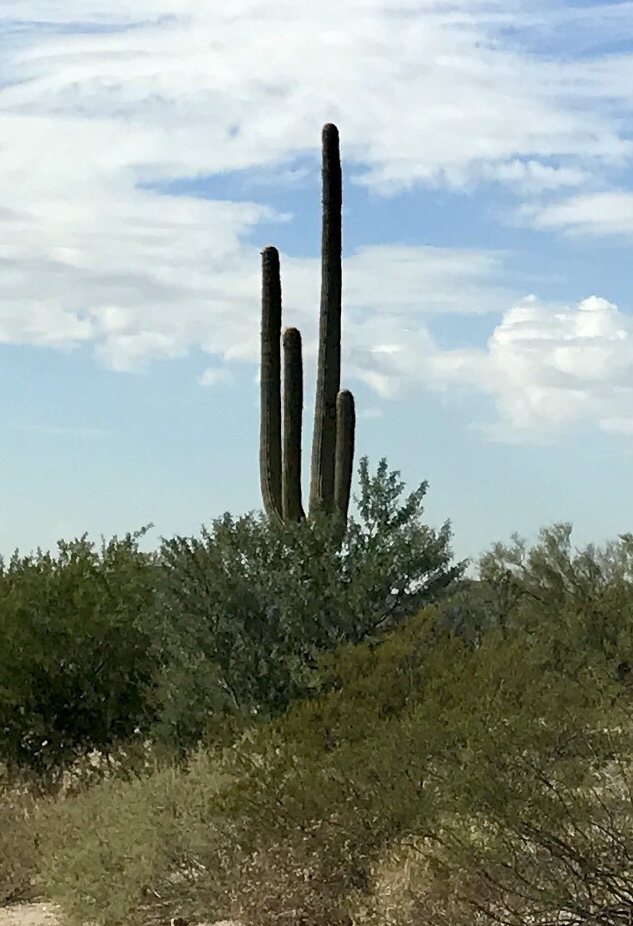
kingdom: Plantae
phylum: Tracheophyta
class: Magnoliopsida
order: Caryophyllales
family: Cactaceae
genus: Carnegiea
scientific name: Carnegiea gigantea
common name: Saguaro
